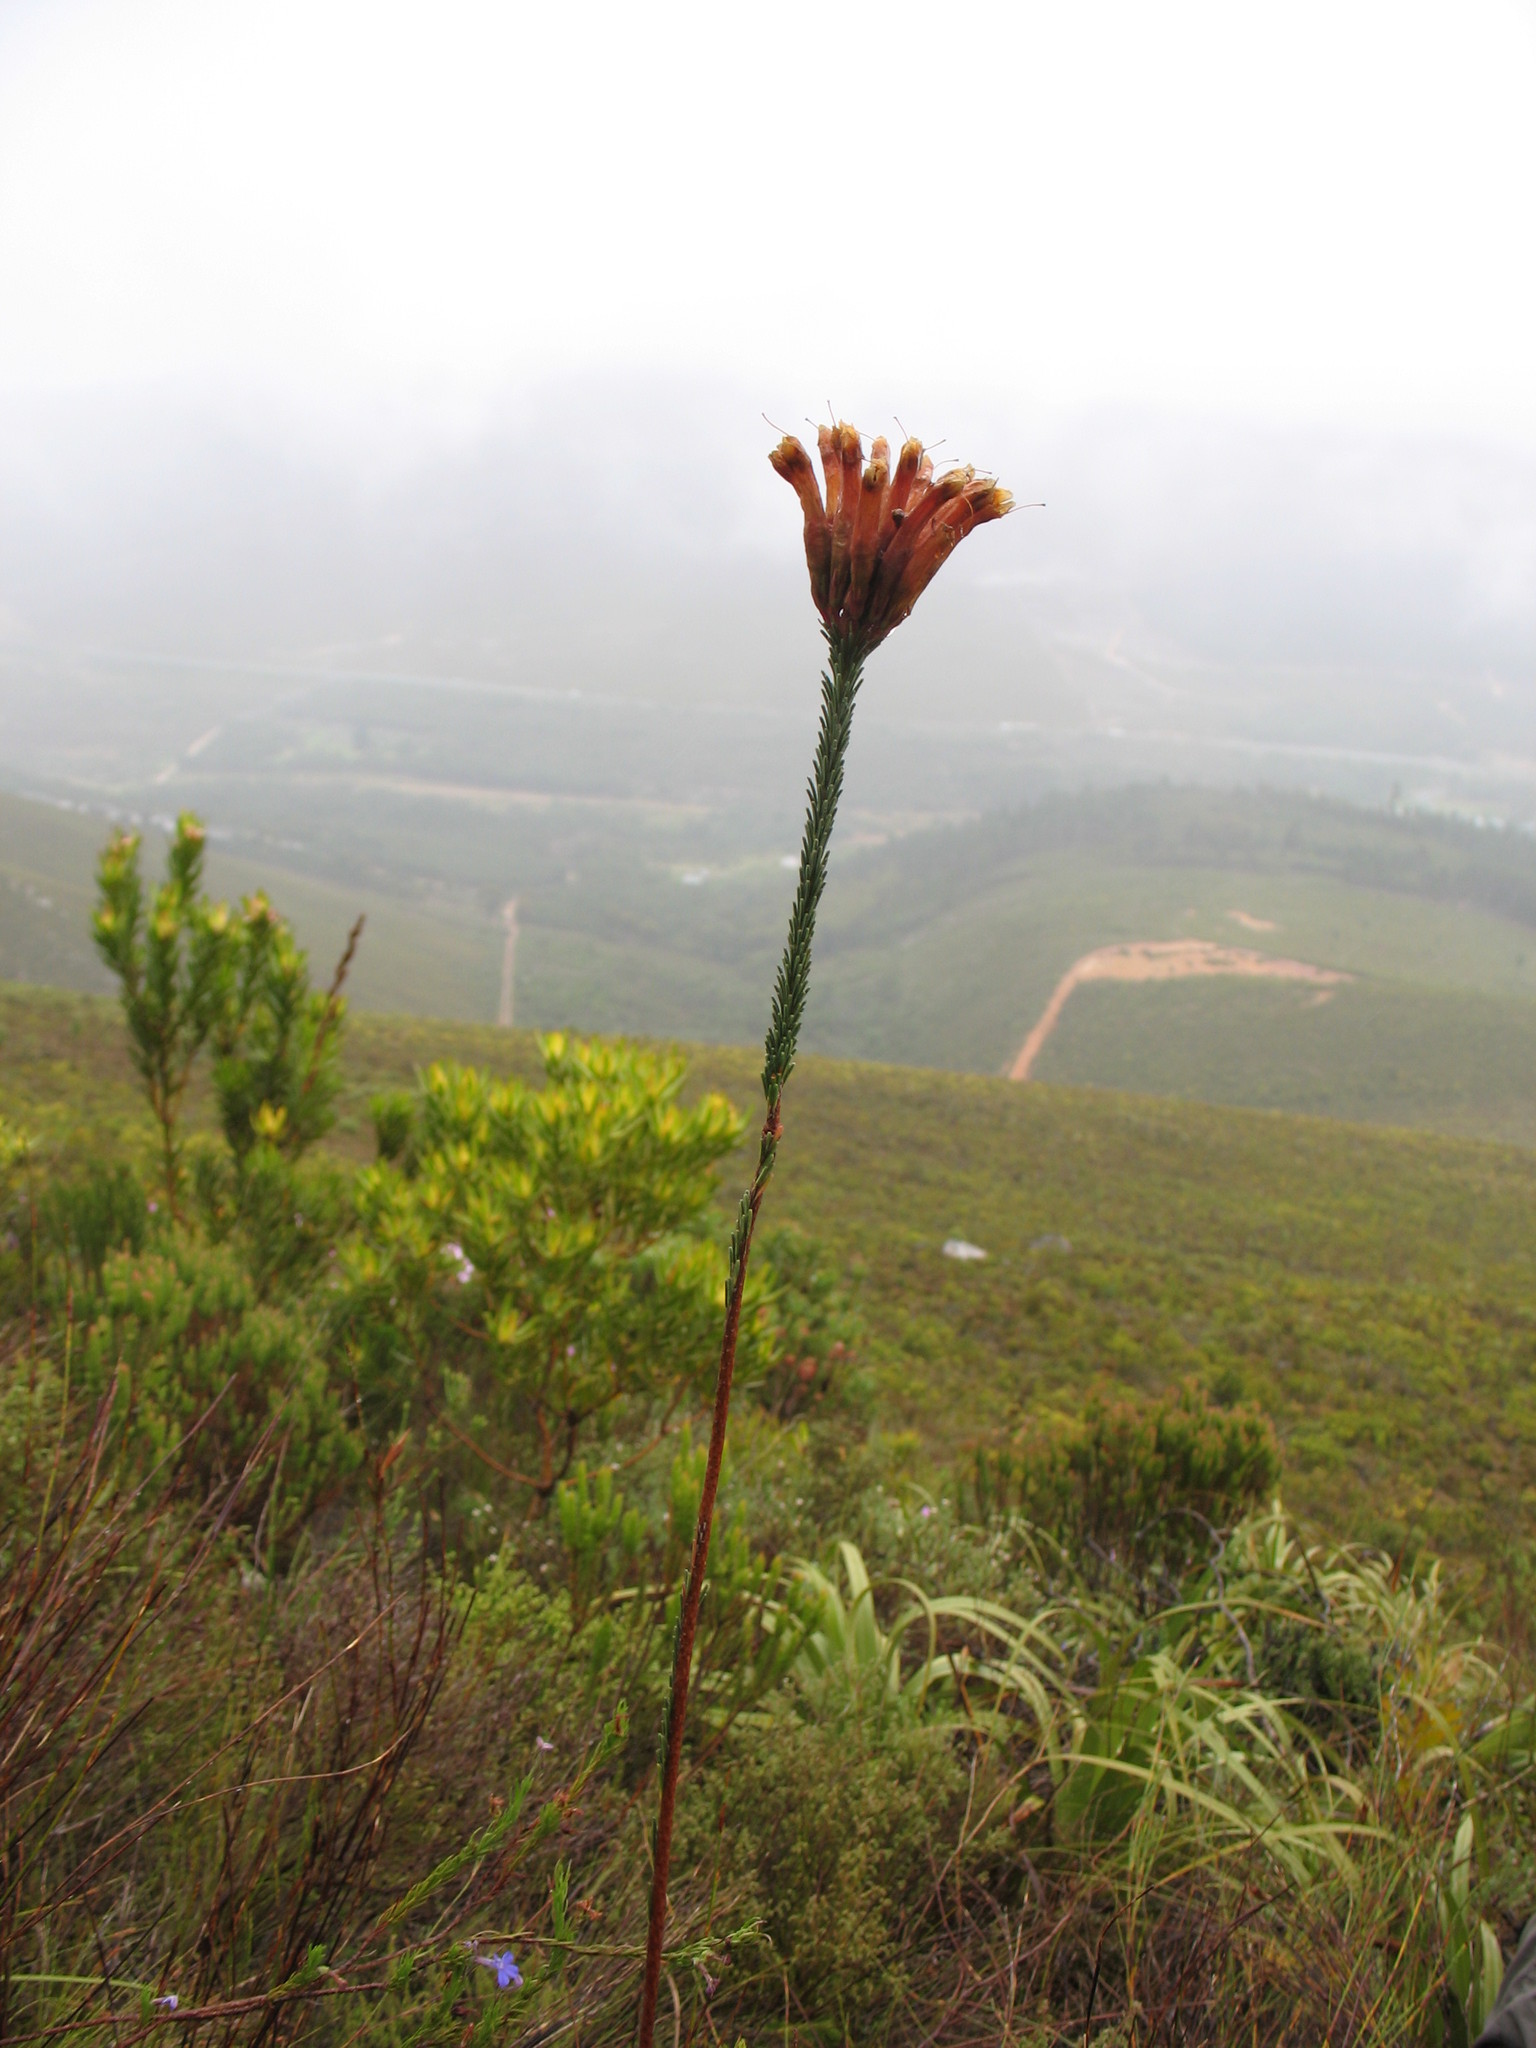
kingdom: Plantae
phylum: Tracheophyta
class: Magnoliopsida
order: Ericales
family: Ericaceae
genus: Erica
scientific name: Erica fascicularis
